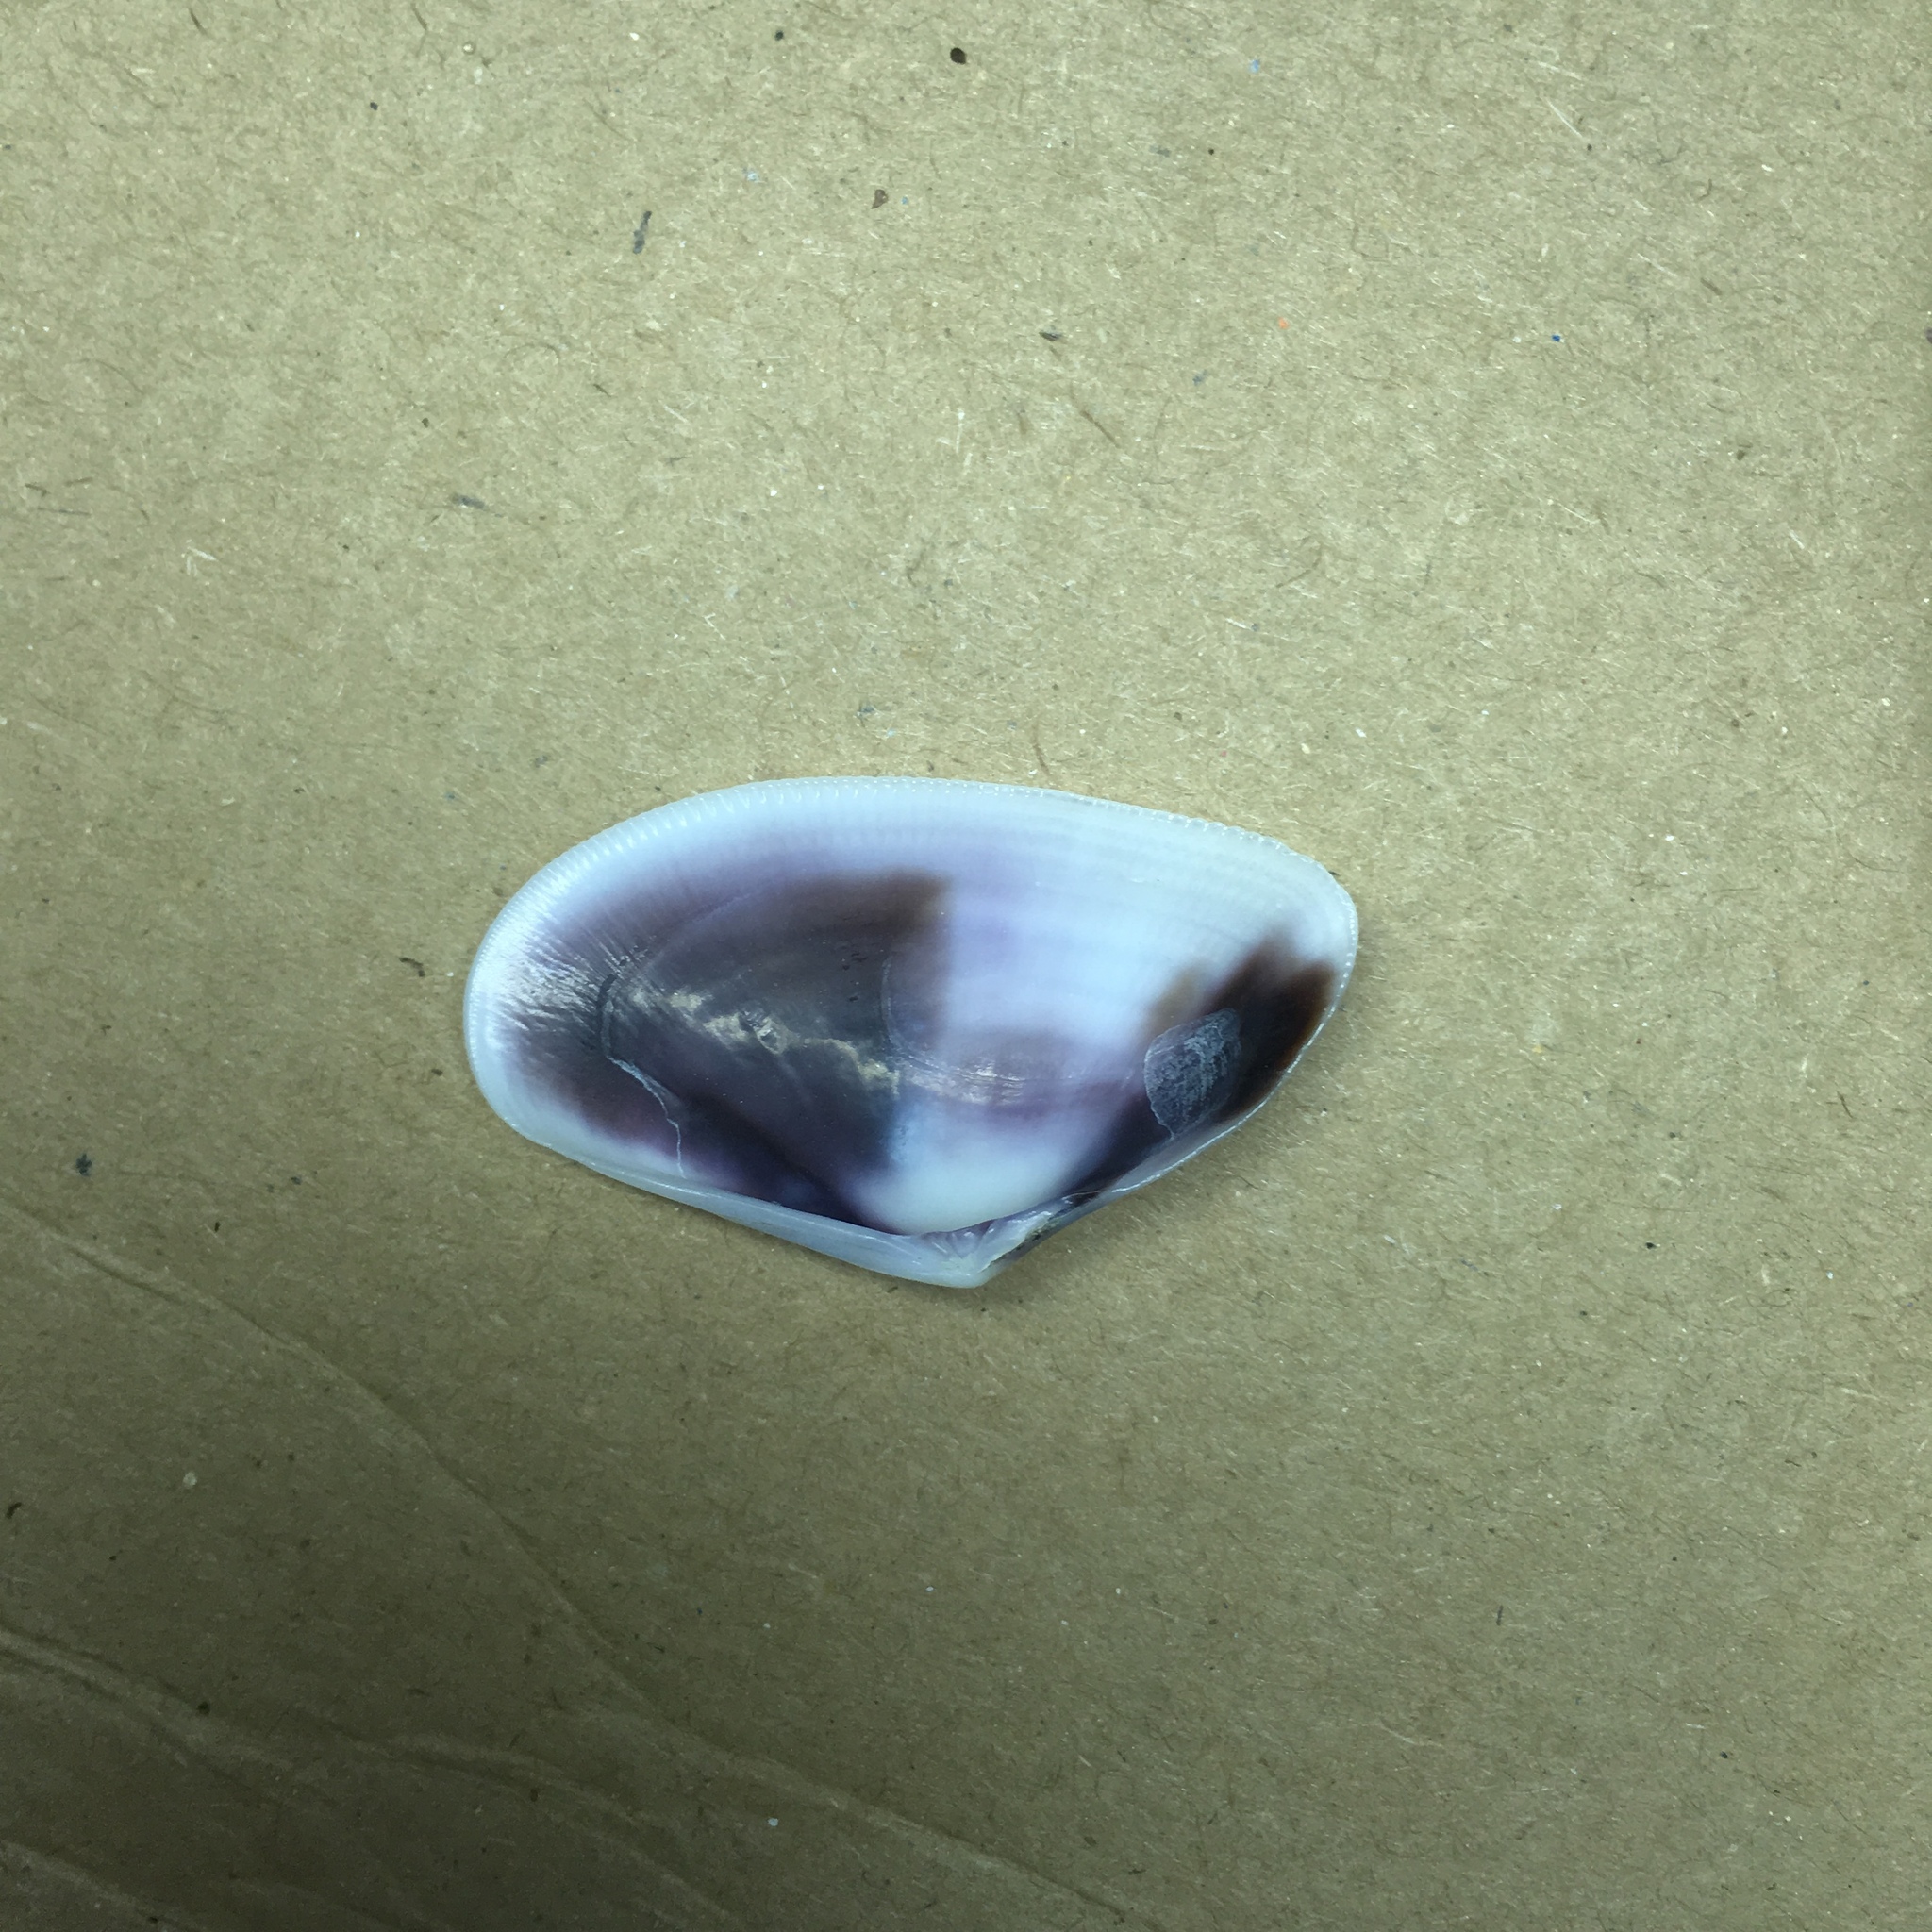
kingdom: Animalia
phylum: Mollusca
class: Bivalvia
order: Cardiida
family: Donacidae
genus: Donax
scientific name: Donax trunculus
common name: Truncate donax
